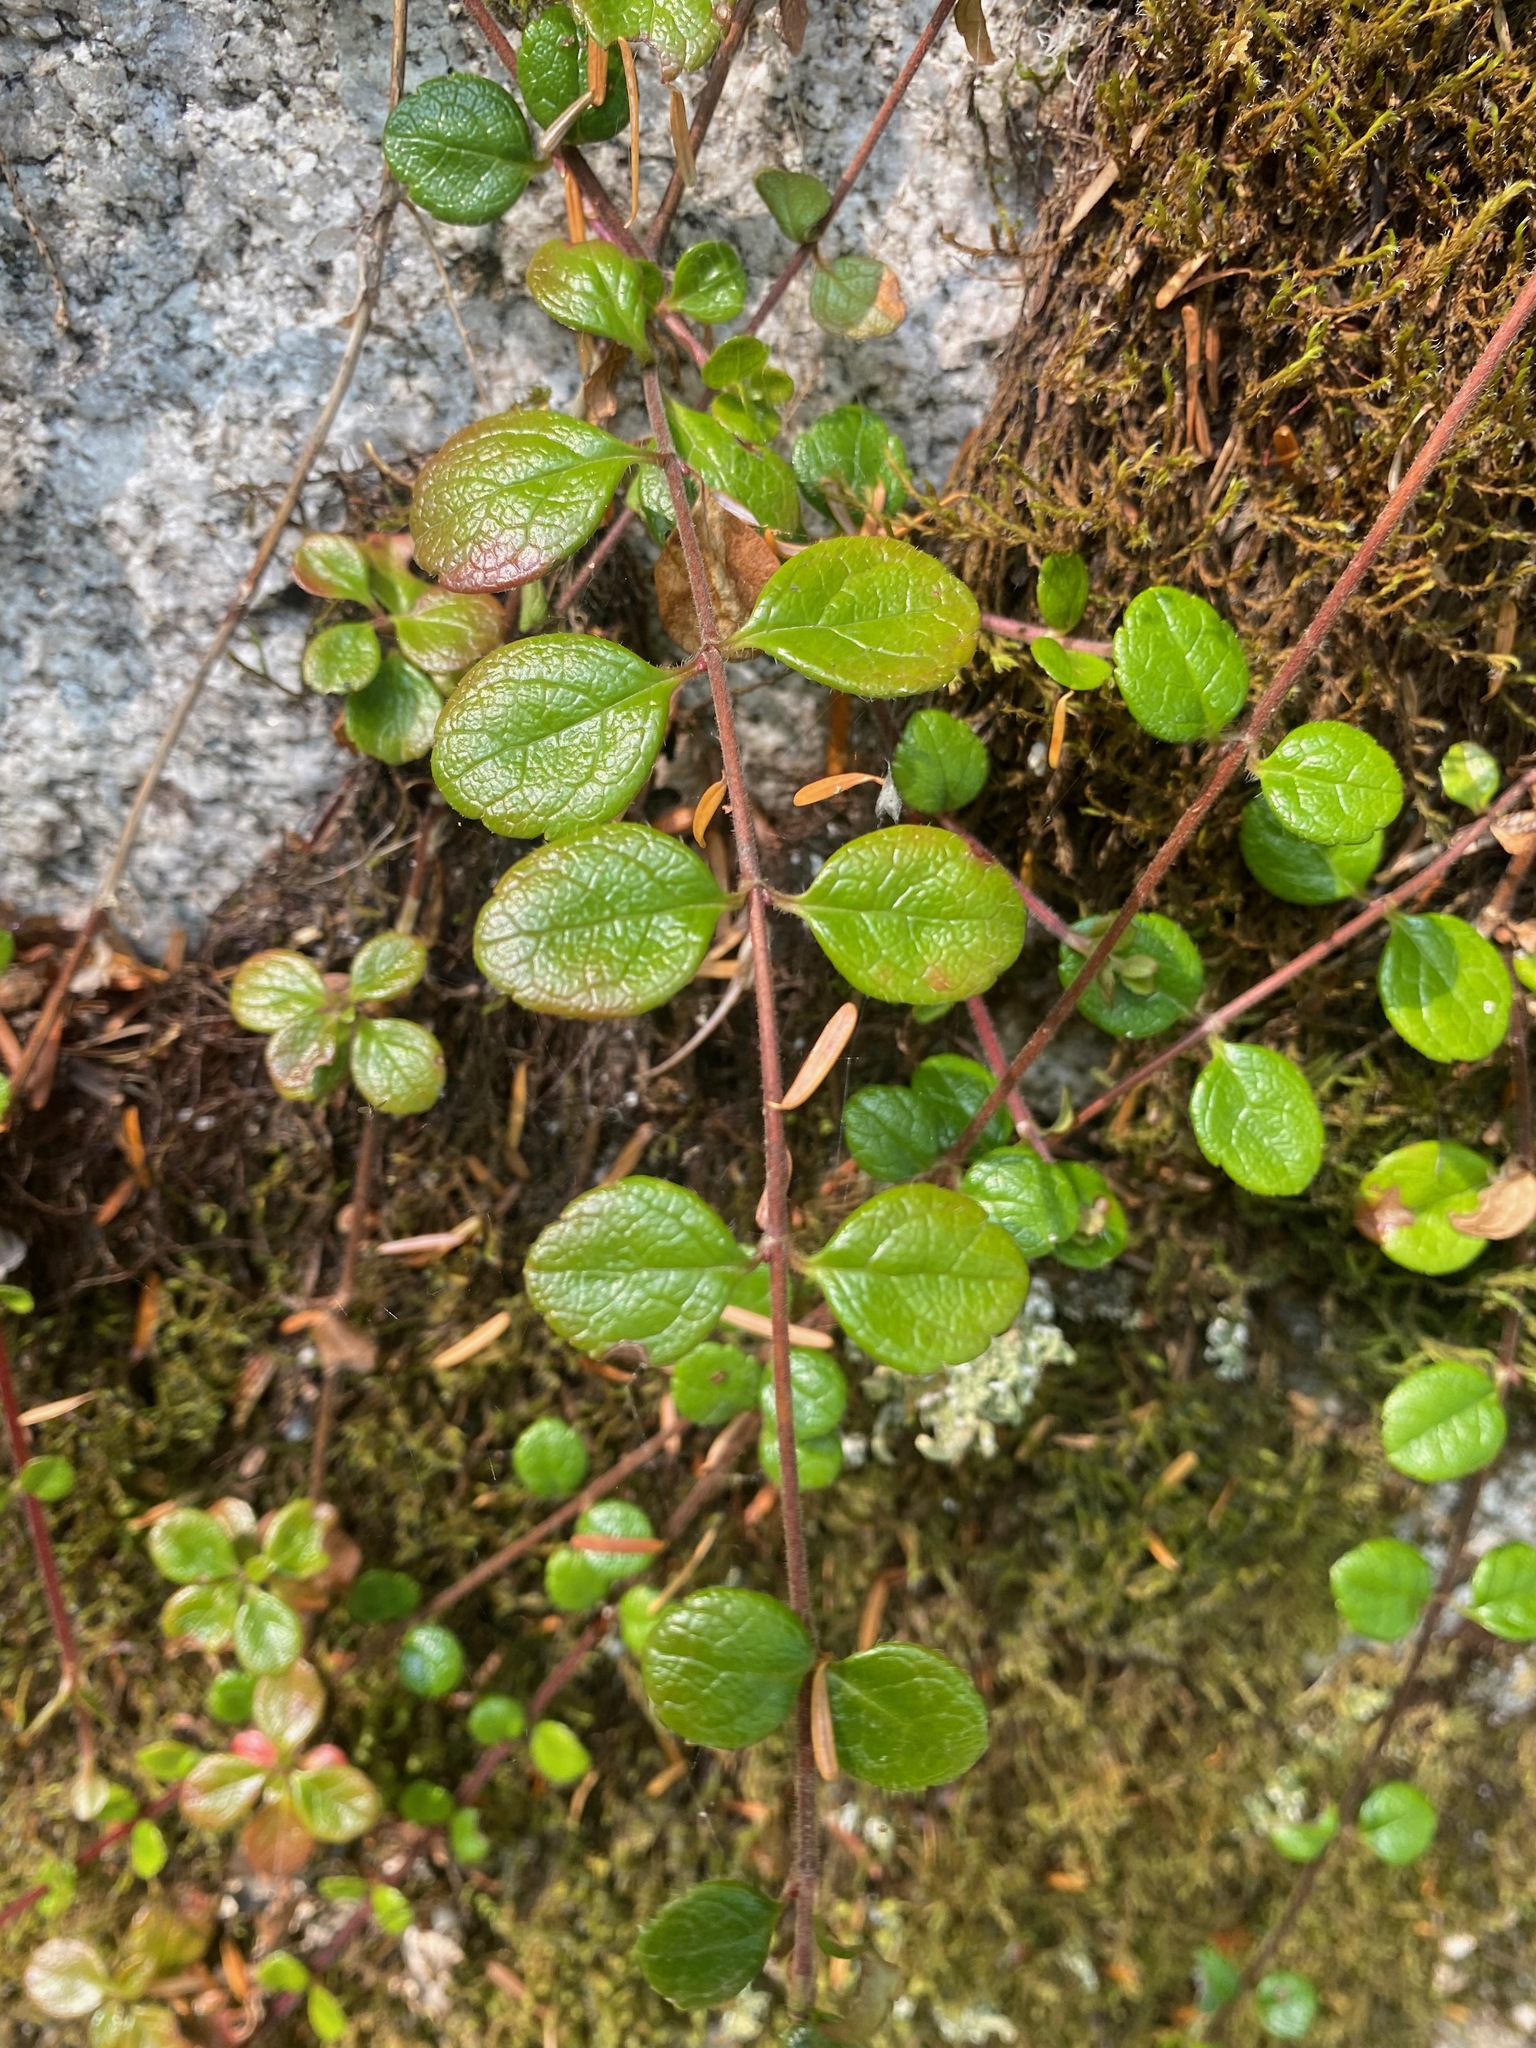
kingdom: Plantae
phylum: Tracheophyta
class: Magnoliopsida
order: Dipsacales
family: Caprifoliaceae
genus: Linnaea
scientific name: Linnaea borealis
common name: Twinflower
